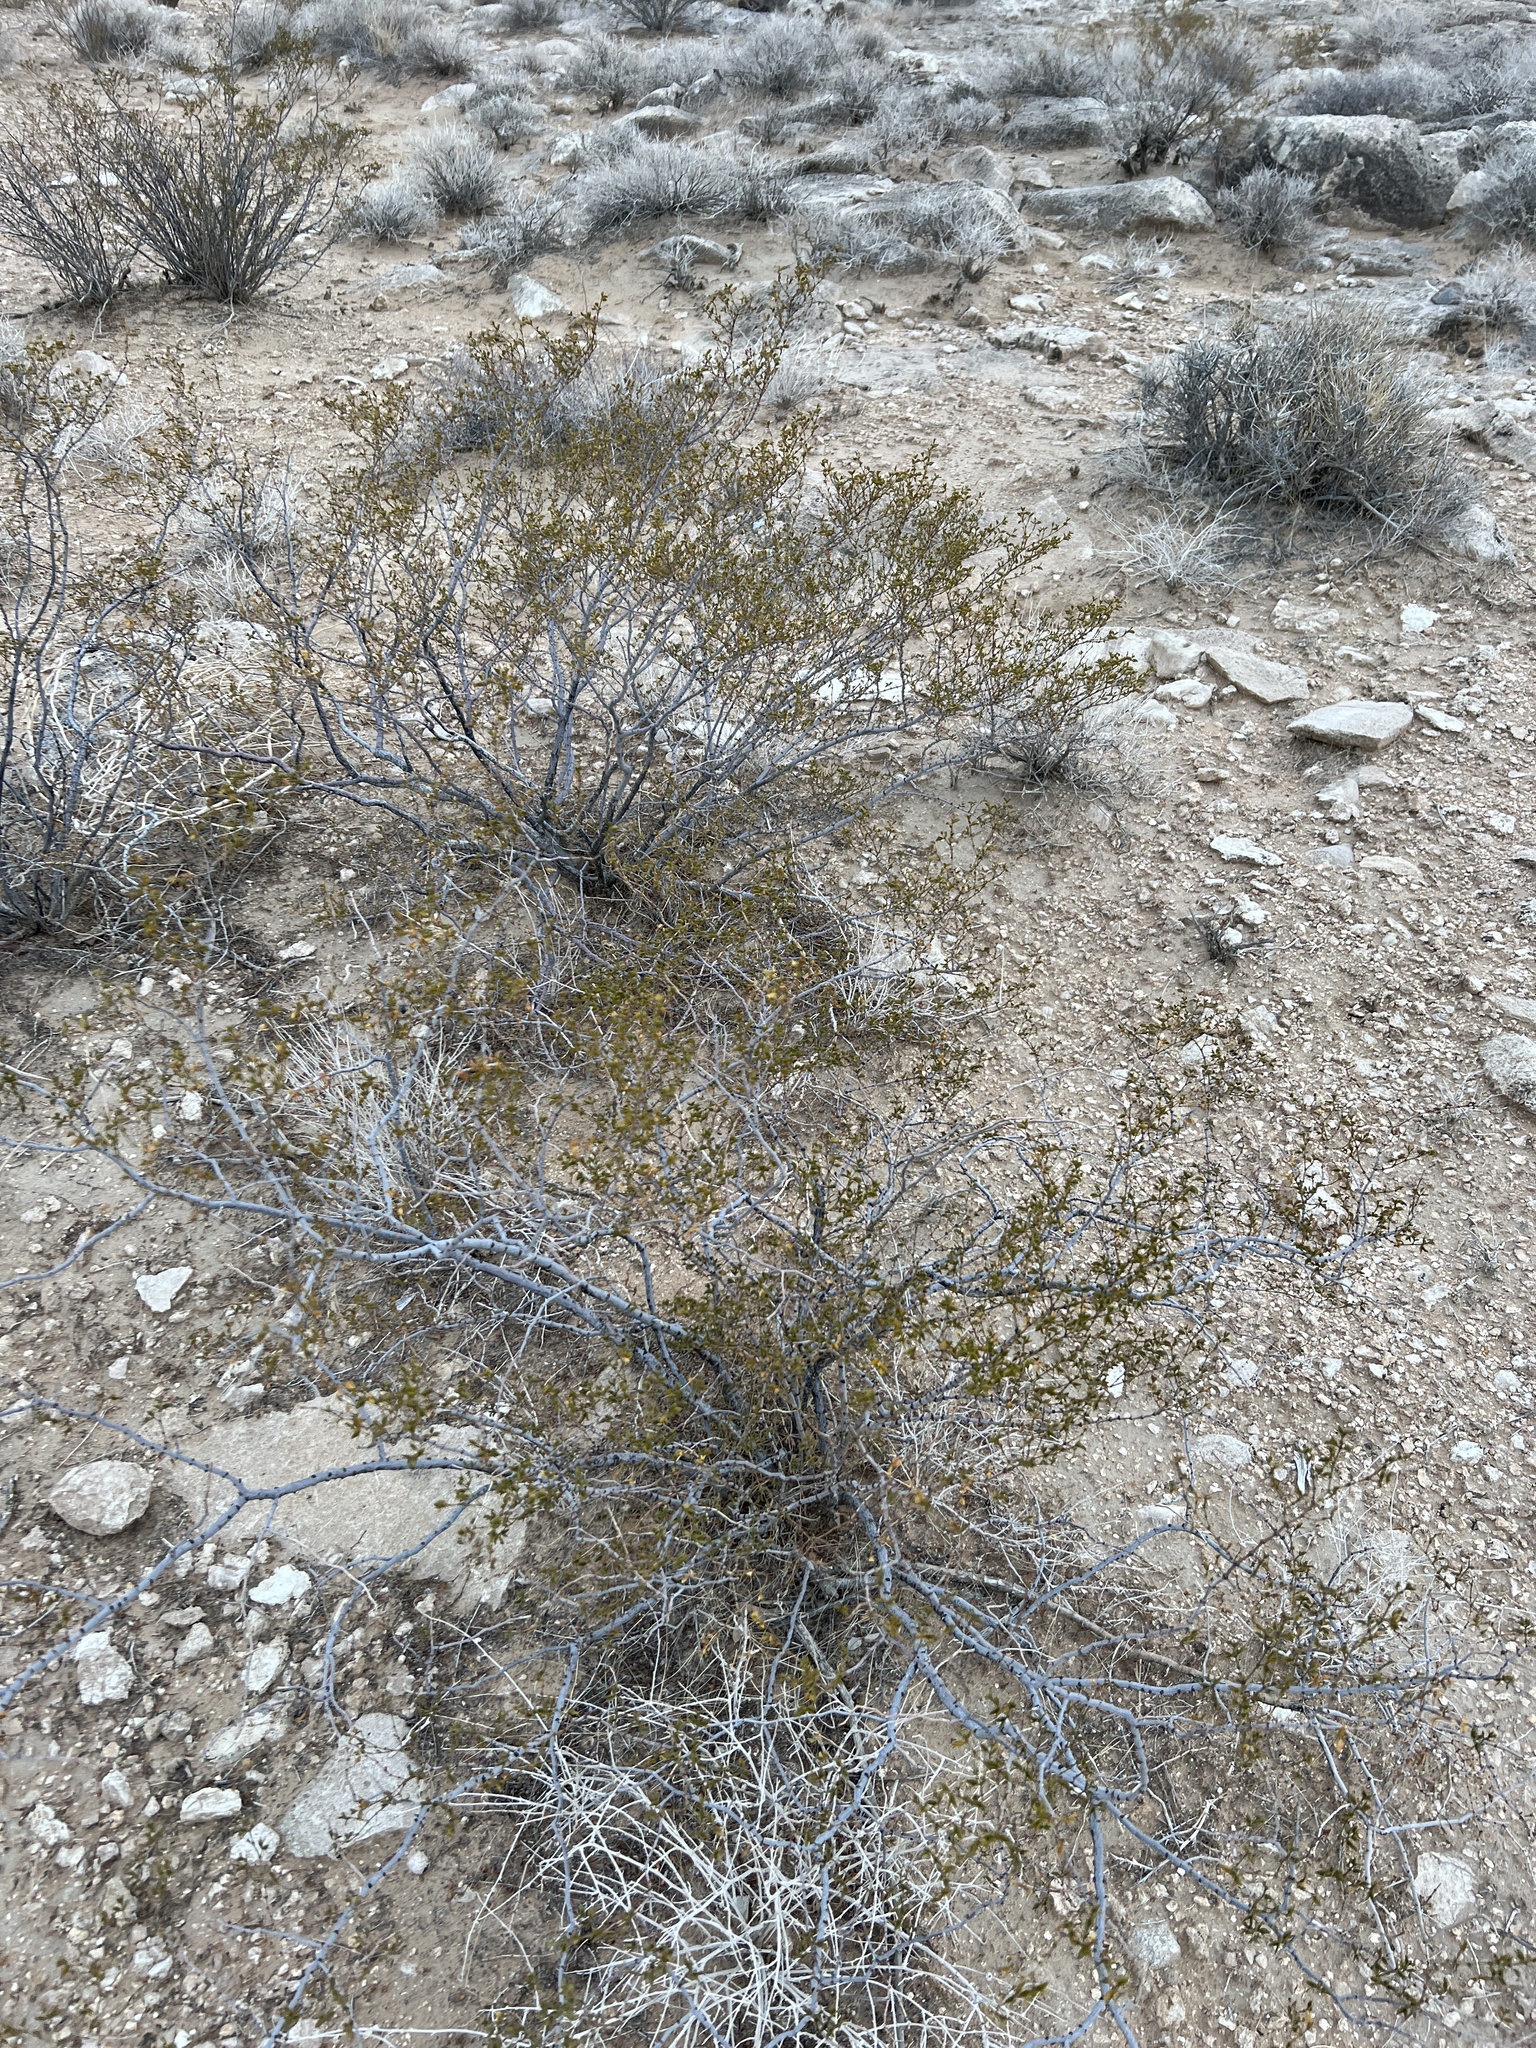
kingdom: Plantae
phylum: Tracheophyta
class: Magnoliopsida
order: Zygophyllales
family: Zygophyllaceae
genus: Larrea
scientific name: Larrea tridentata
